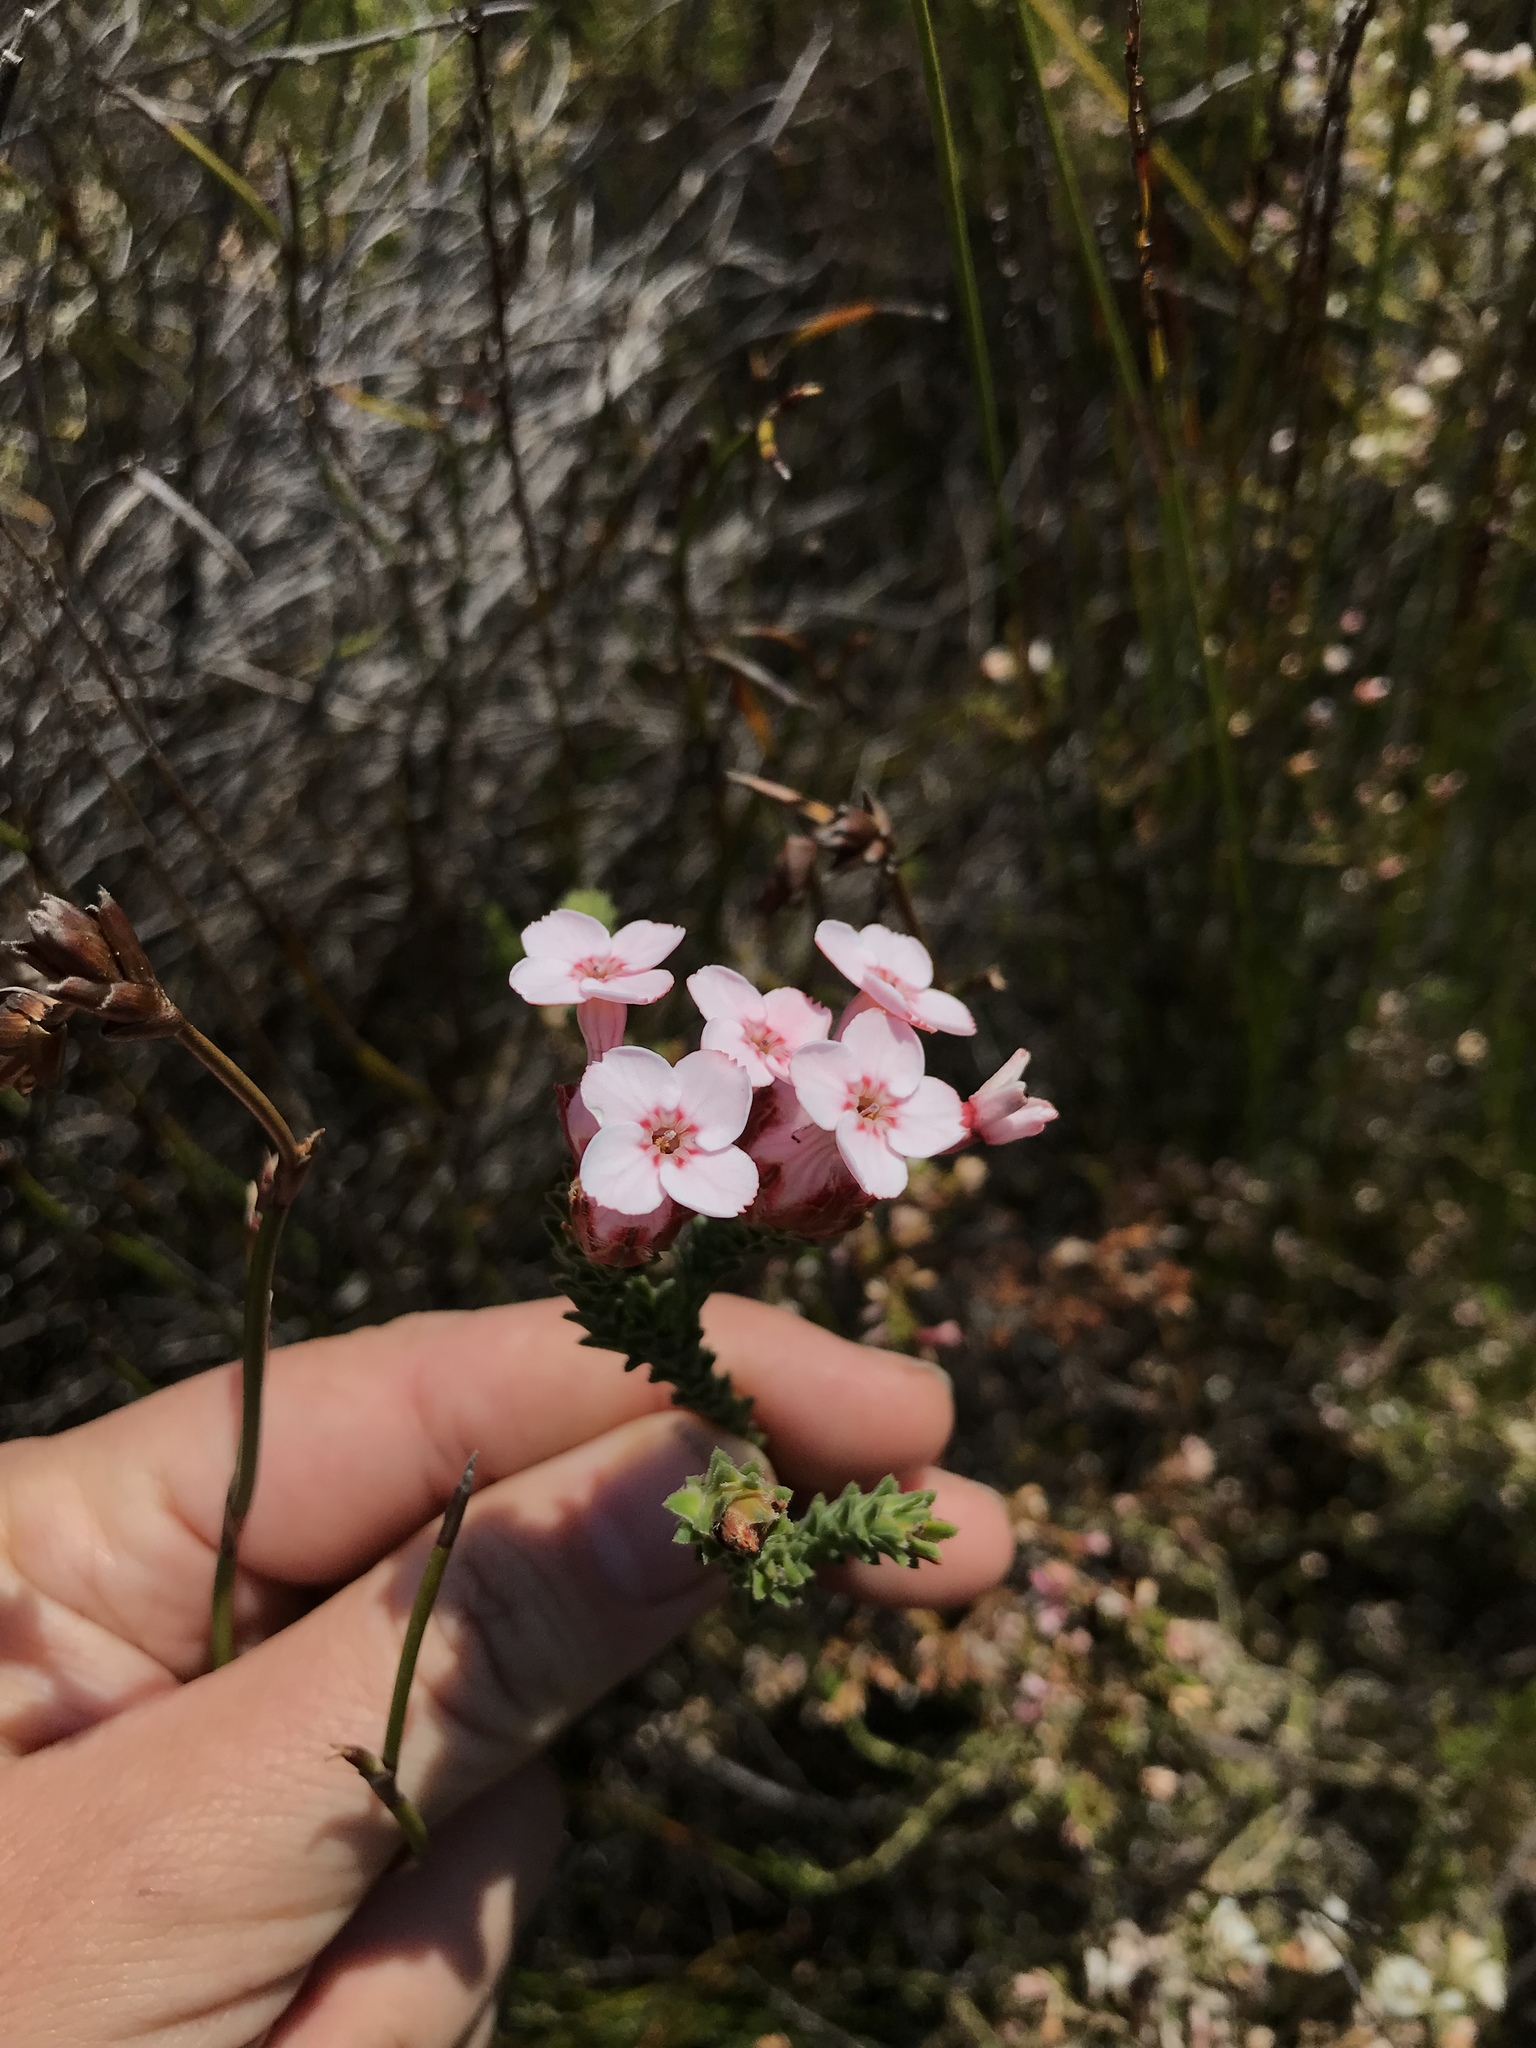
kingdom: Plantae
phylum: Tracheophyta
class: Magnoliopsida
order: Ericales
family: Ericaceae
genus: Erica
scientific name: Erica ampullacea
